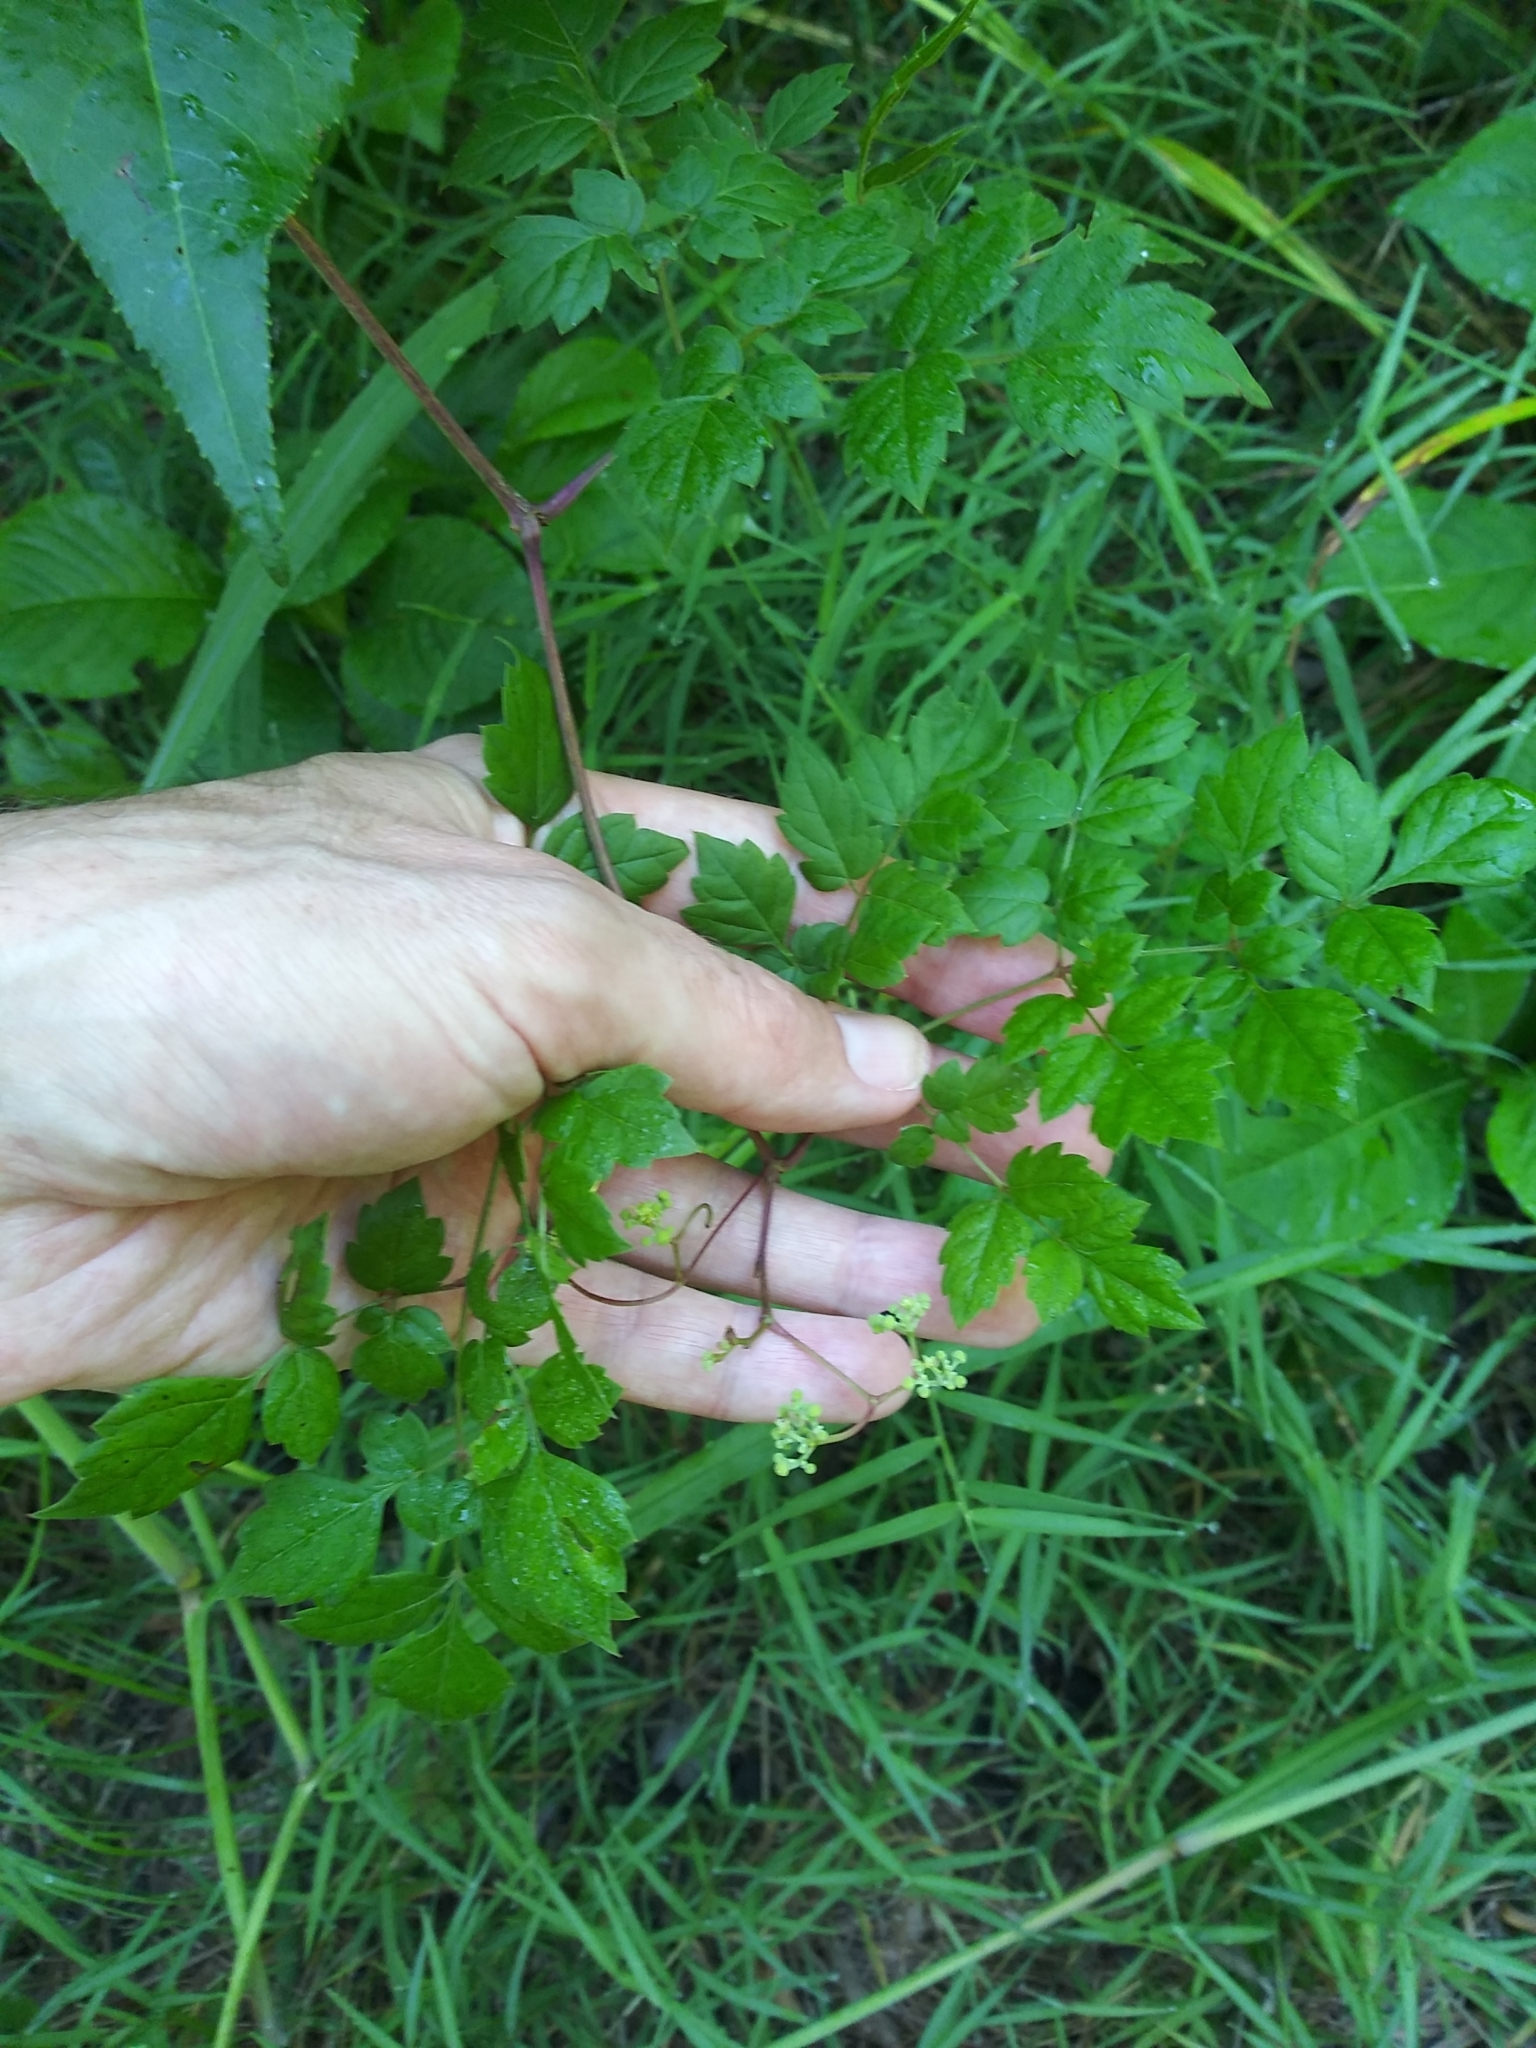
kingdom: Plantae
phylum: Tracheophyta
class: Magnoliopsida
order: Vitales
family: Vitaceae
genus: Nekemias
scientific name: Nekemias arborea
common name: Peppervine
